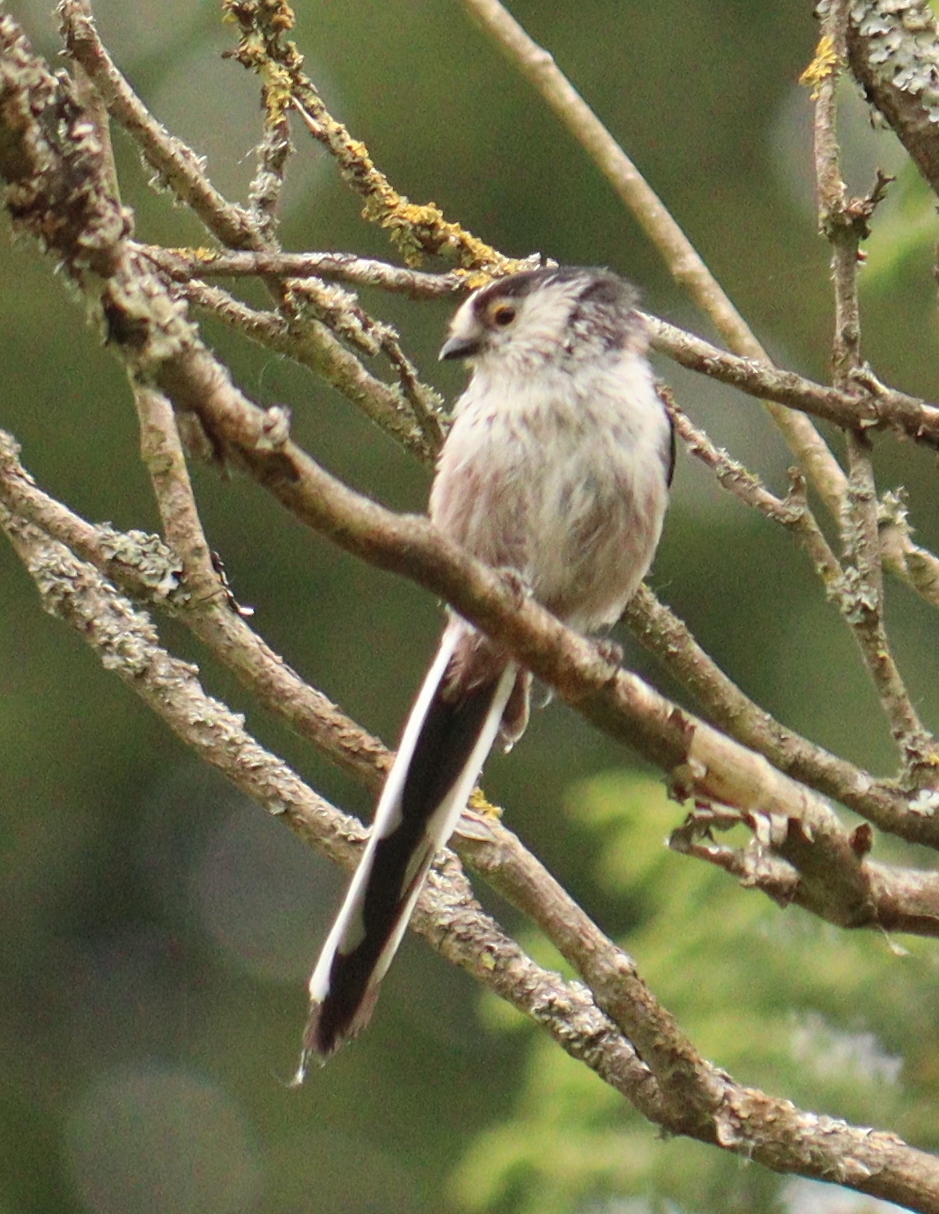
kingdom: Animalia
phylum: Chordata
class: Aves
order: Passeriformes
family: Aegithalidae
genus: Aegithalos
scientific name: Aegithalos caudatus
